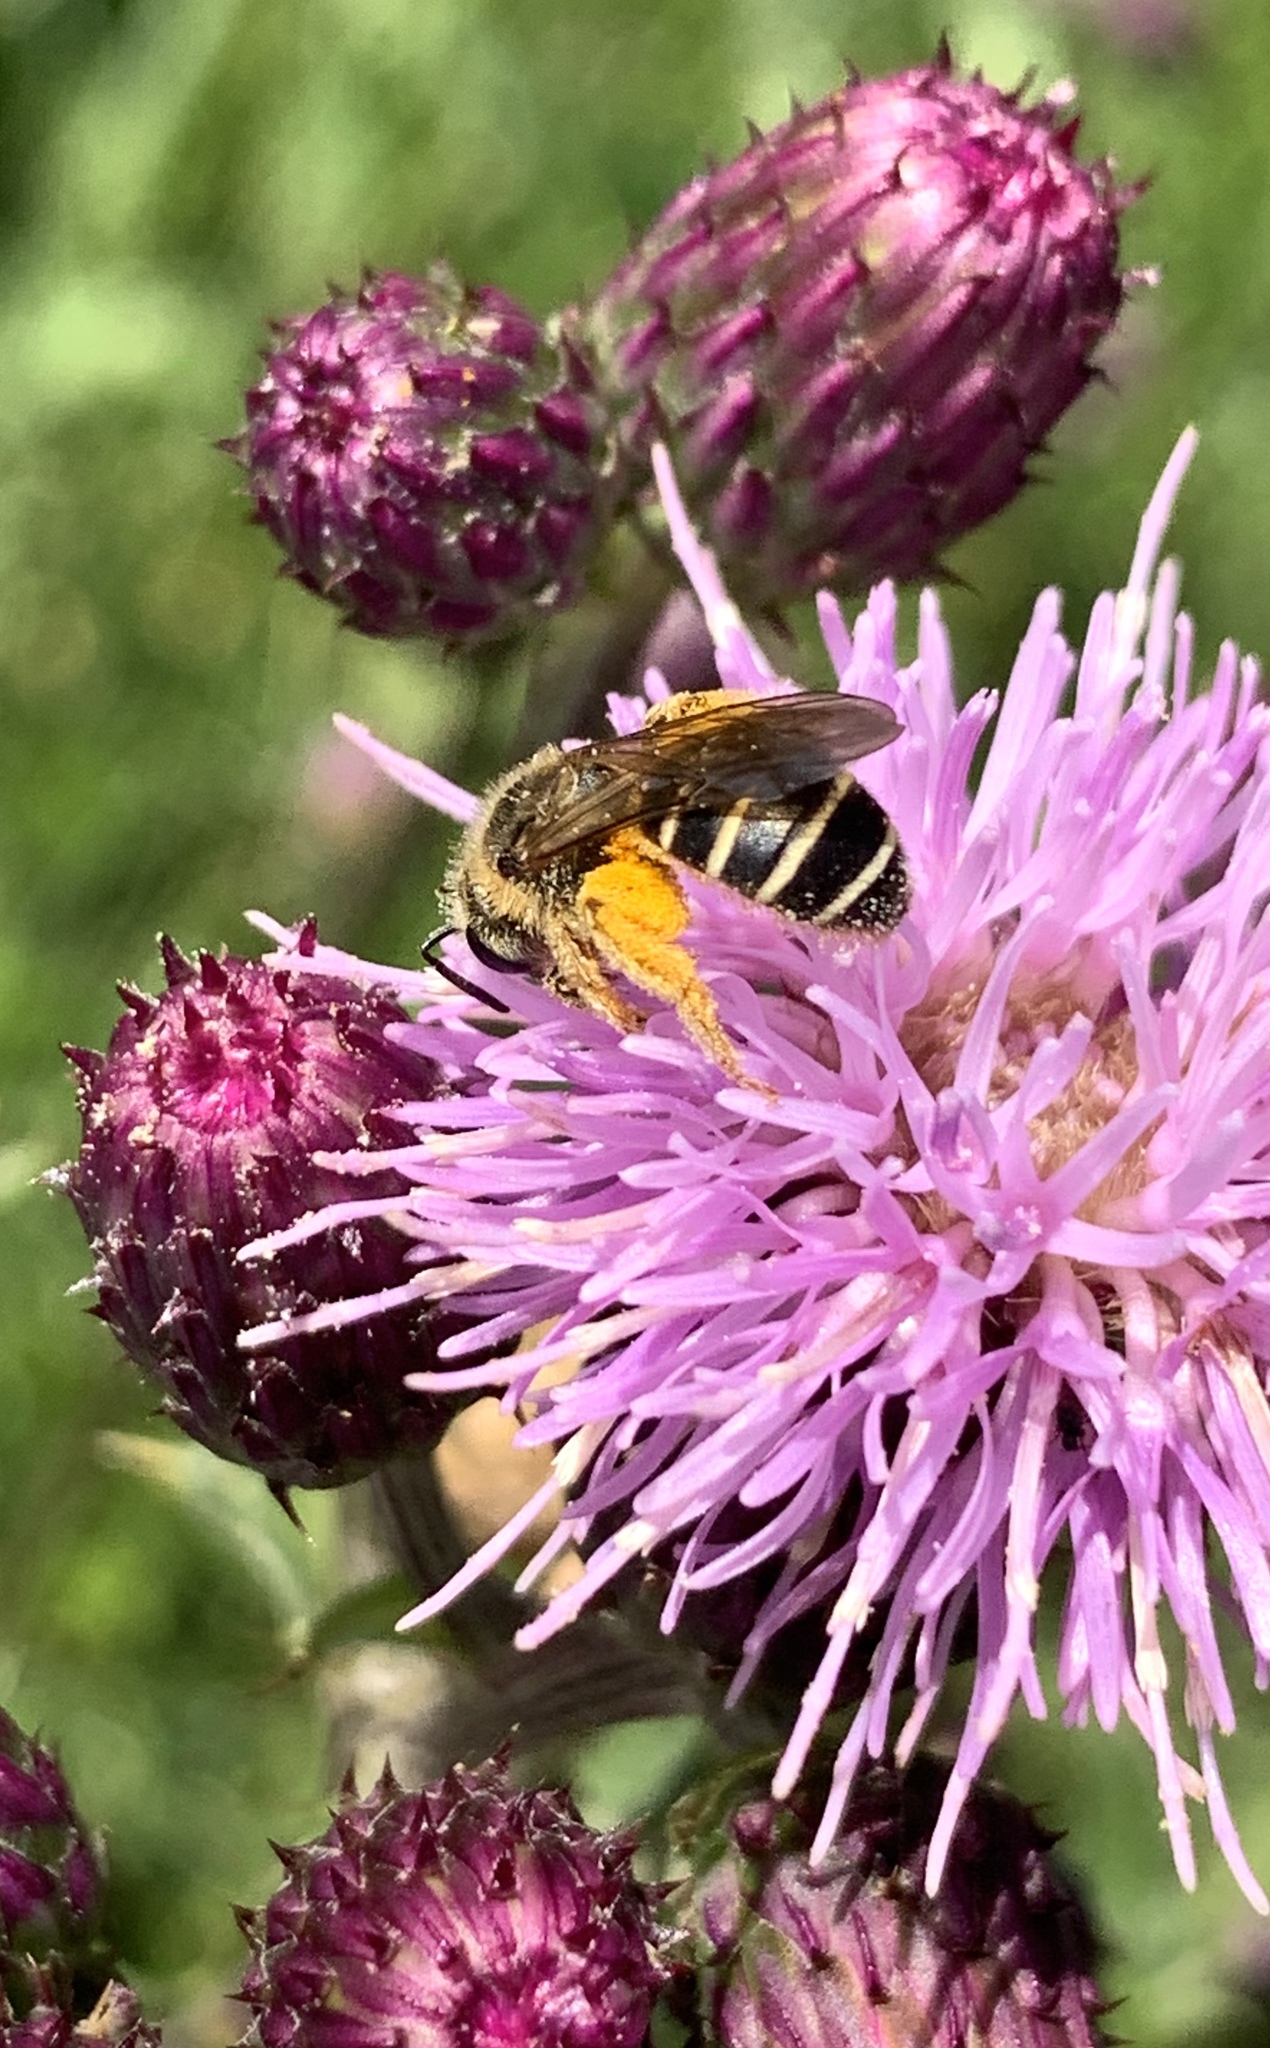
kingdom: Animalia
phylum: Arthropoda
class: Insecta
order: Hymenoptera
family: Halictidae
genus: Halictus
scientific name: Halictus rubicundus
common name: Orange-legged furrow bee
